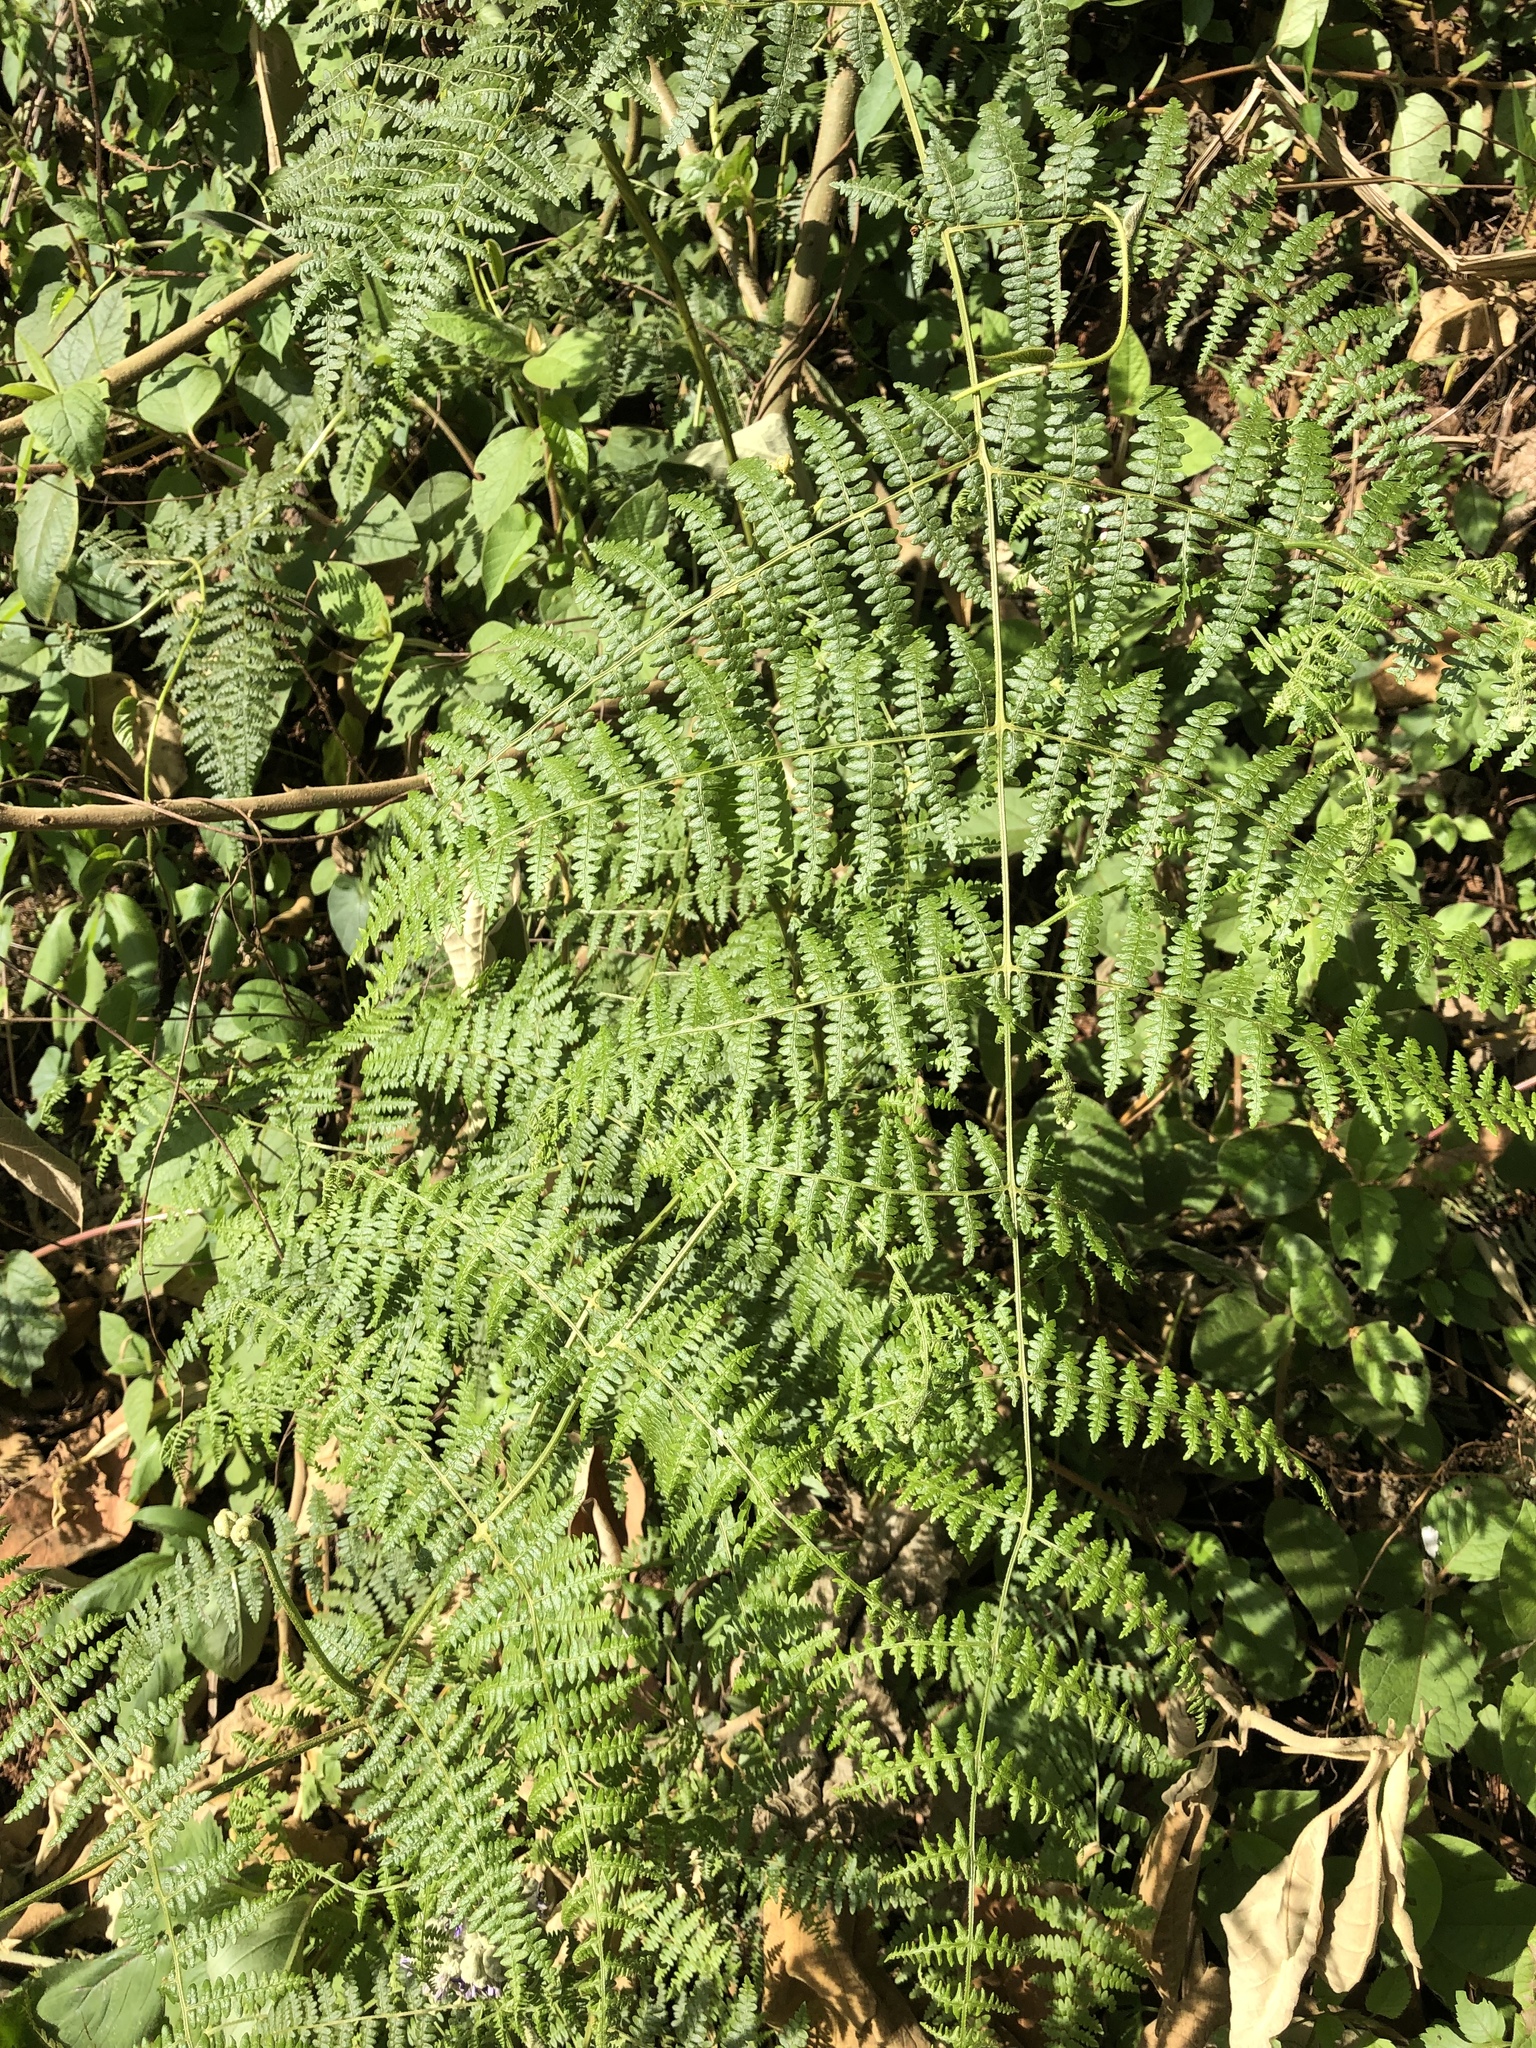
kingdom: Plantae
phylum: Tracheophyta
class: Polypodiopsida
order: Polypodiales
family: Dennstaedtiaceae
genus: Pteridium
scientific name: Pteridium aquilinum
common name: Bracken
